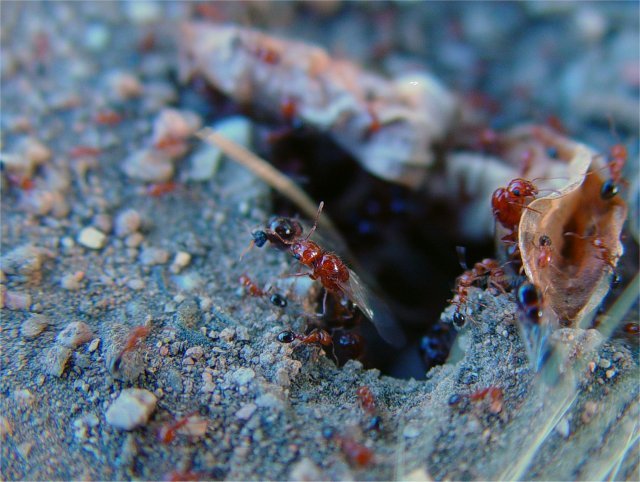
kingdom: Animalia
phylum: Arthropoda
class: Insecta
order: Hymenoptera
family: Formicidae
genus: Solenopsis
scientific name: Solenopsis xyloni
